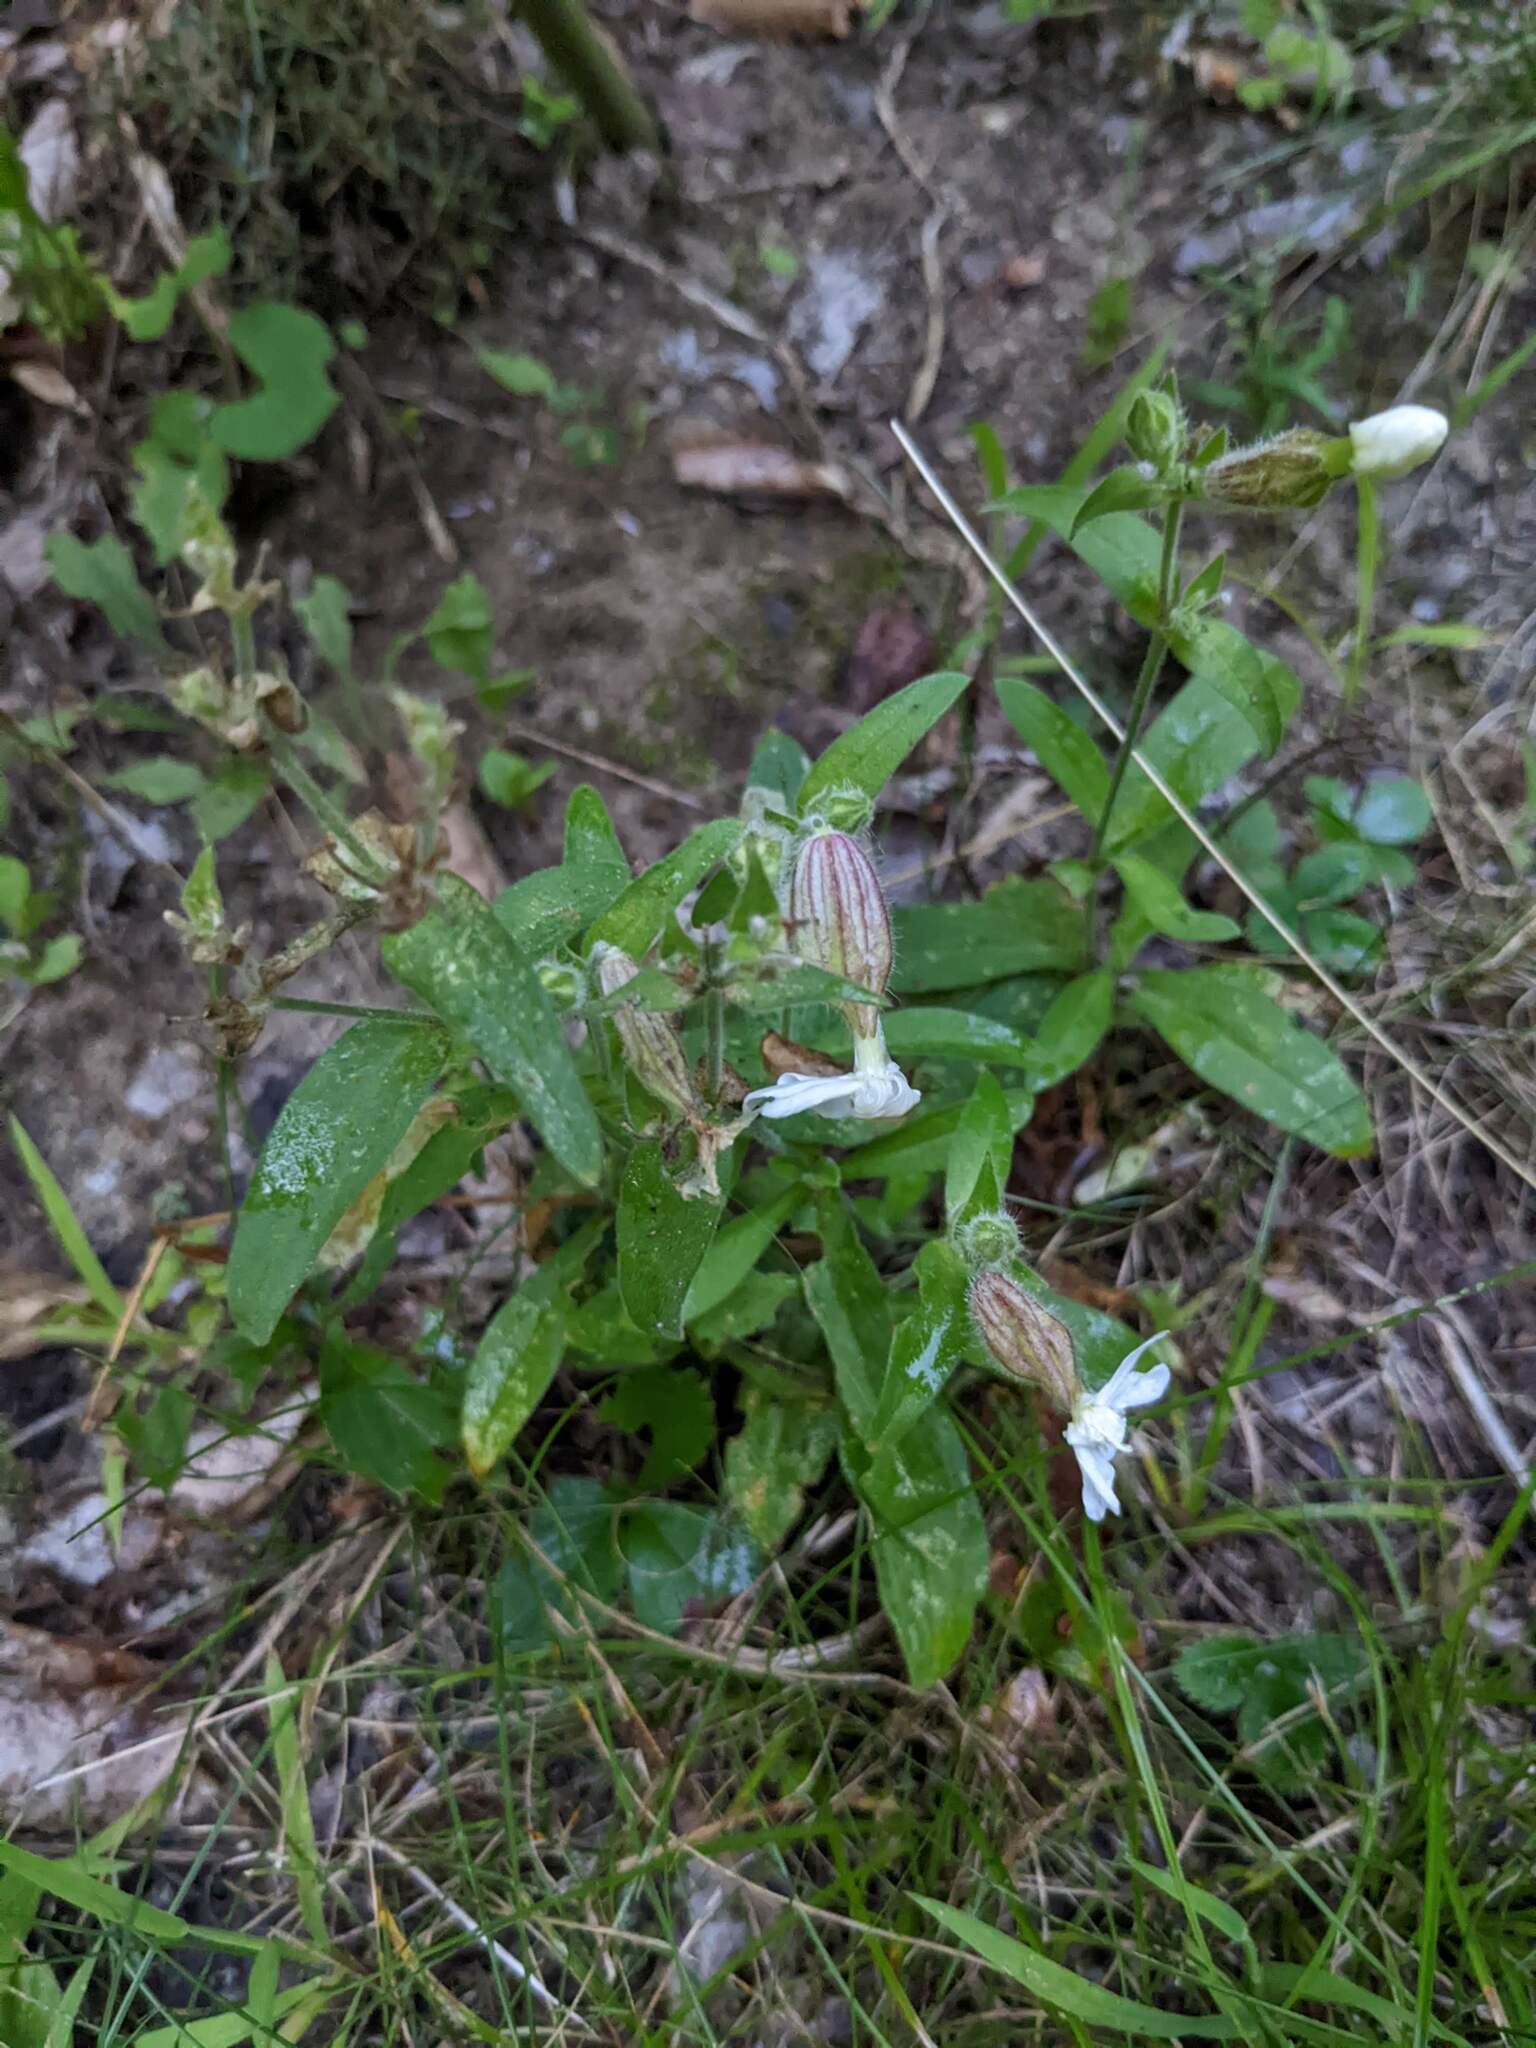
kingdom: Plantae
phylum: Tracheophyta
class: Magnoliopsida
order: Caryophyllales
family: Caryophyllaceae
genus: Silene
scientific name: Silene latifolia
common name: White campion
